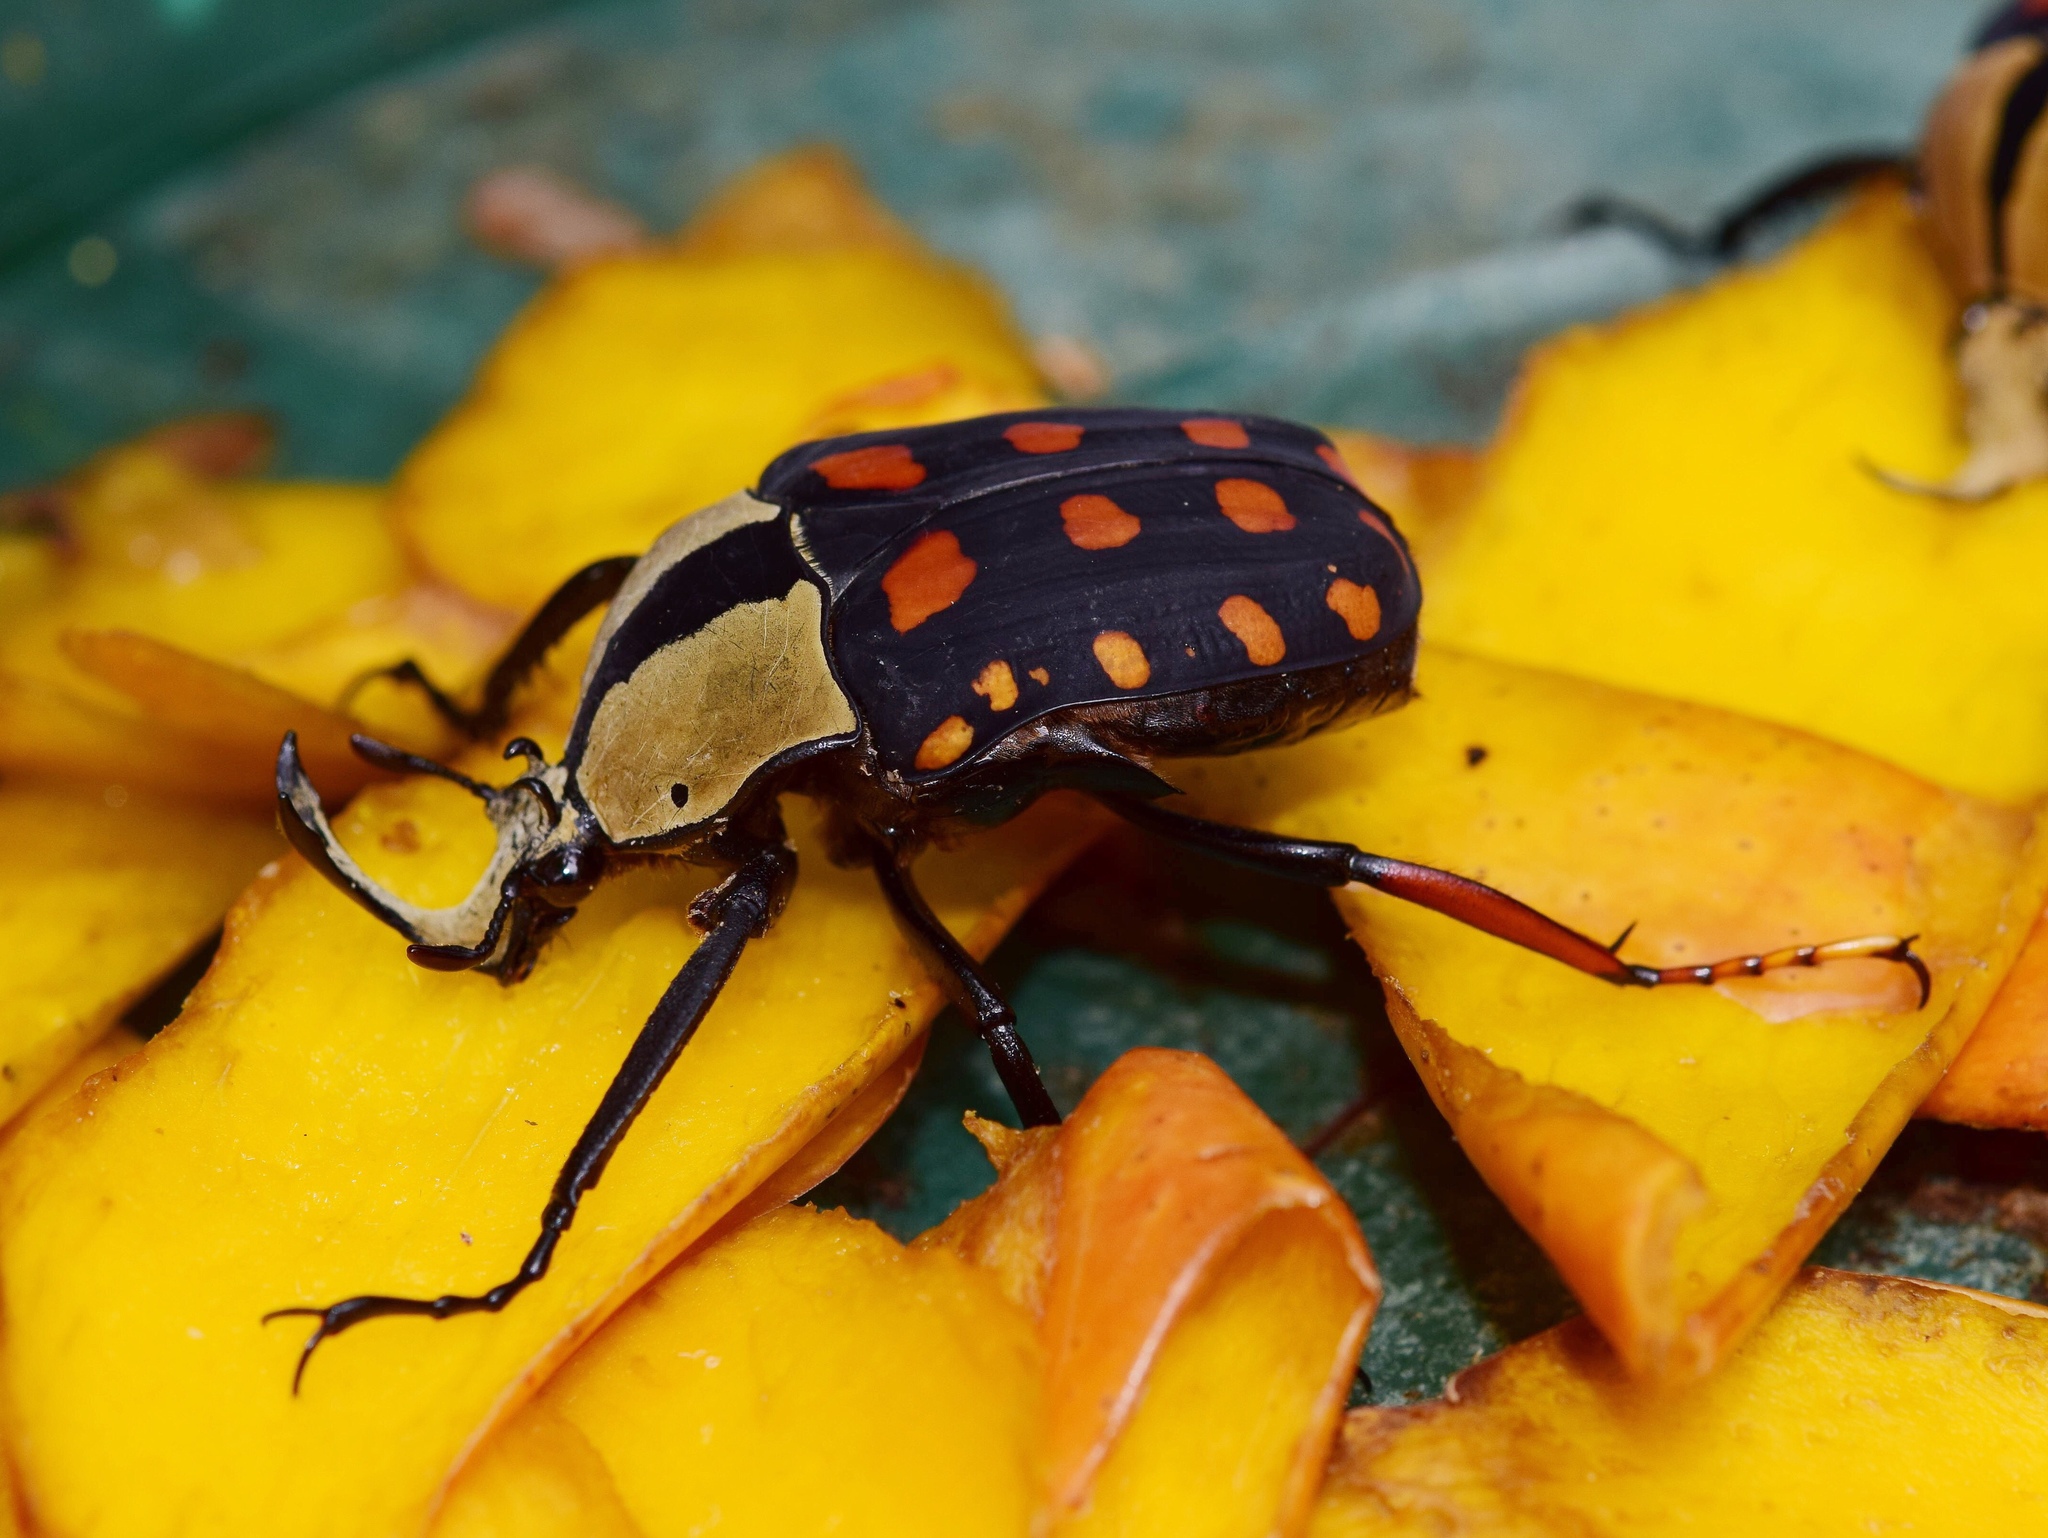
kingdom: Animalia
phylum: Arthropoda
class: Insecta
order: Coleoptera
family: Scarabaeidae
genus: Mecynorhina
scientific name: Mecynorhina passerinii
